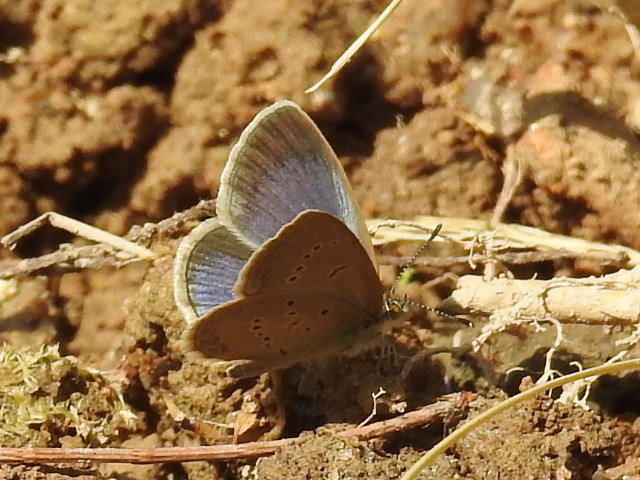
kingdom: Animalia
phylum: Arthropoda
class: Insecta
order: Lepidoptera
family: Lycaenidae
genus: Zizina
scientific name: Zizina otis
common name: Lesser grass blue
